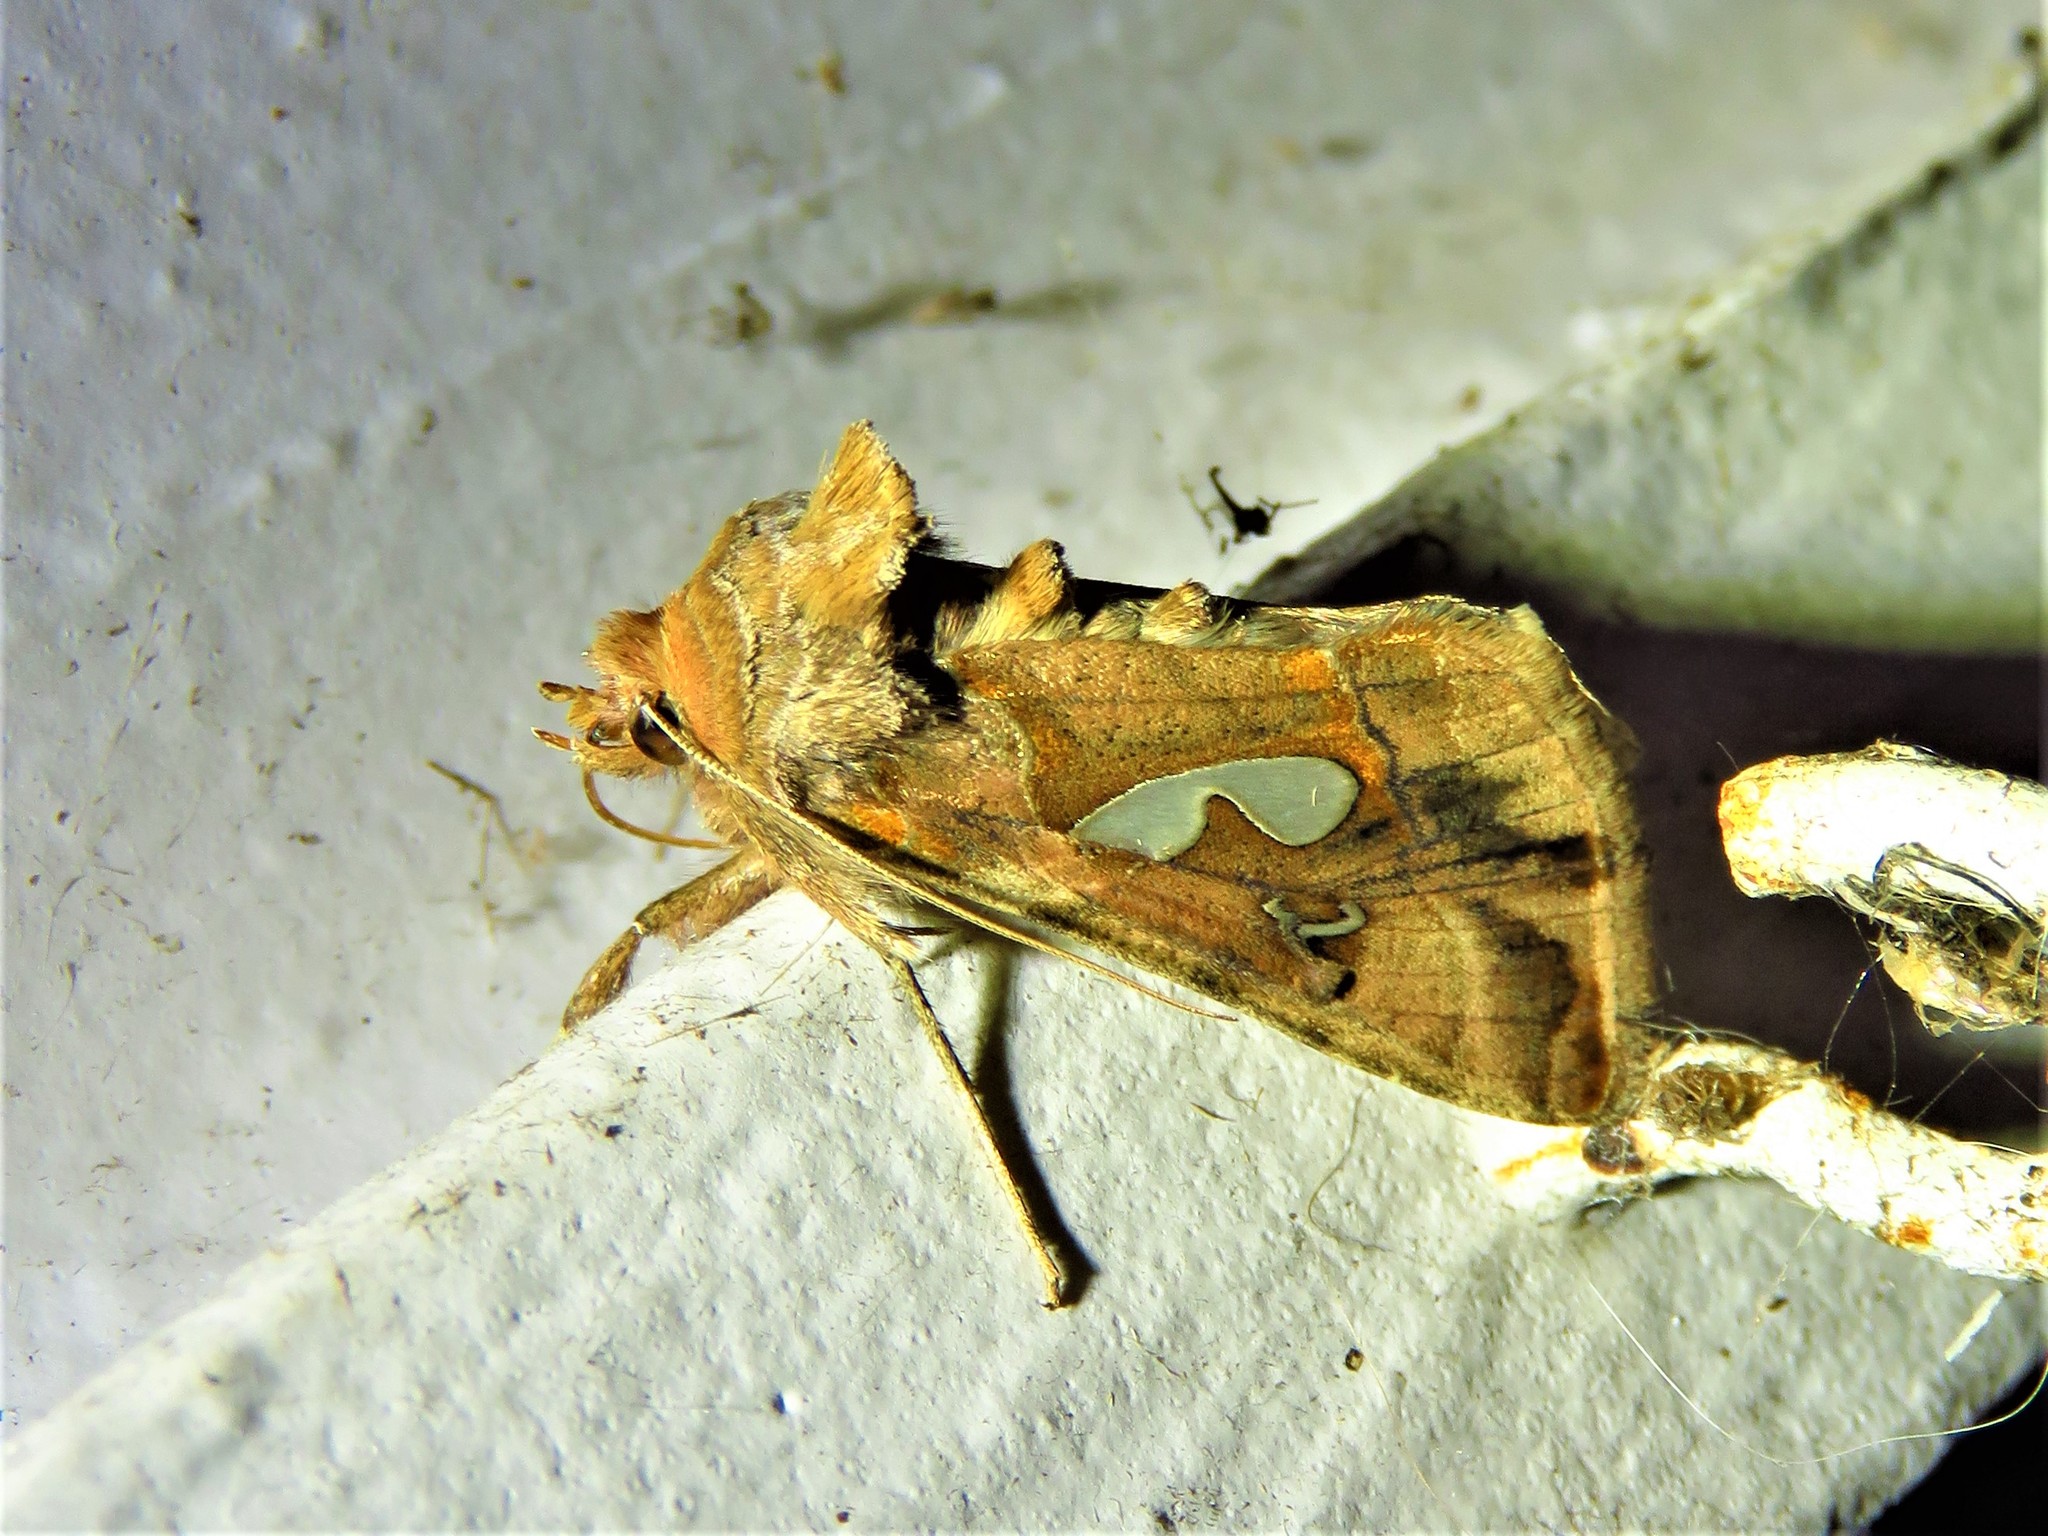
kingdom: Animalia
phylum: Arthropoda
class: Insecta
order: Lepidoptera
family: Noctuidae
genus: Megalographa
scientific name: Megalographa biloba
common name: Cutworm
